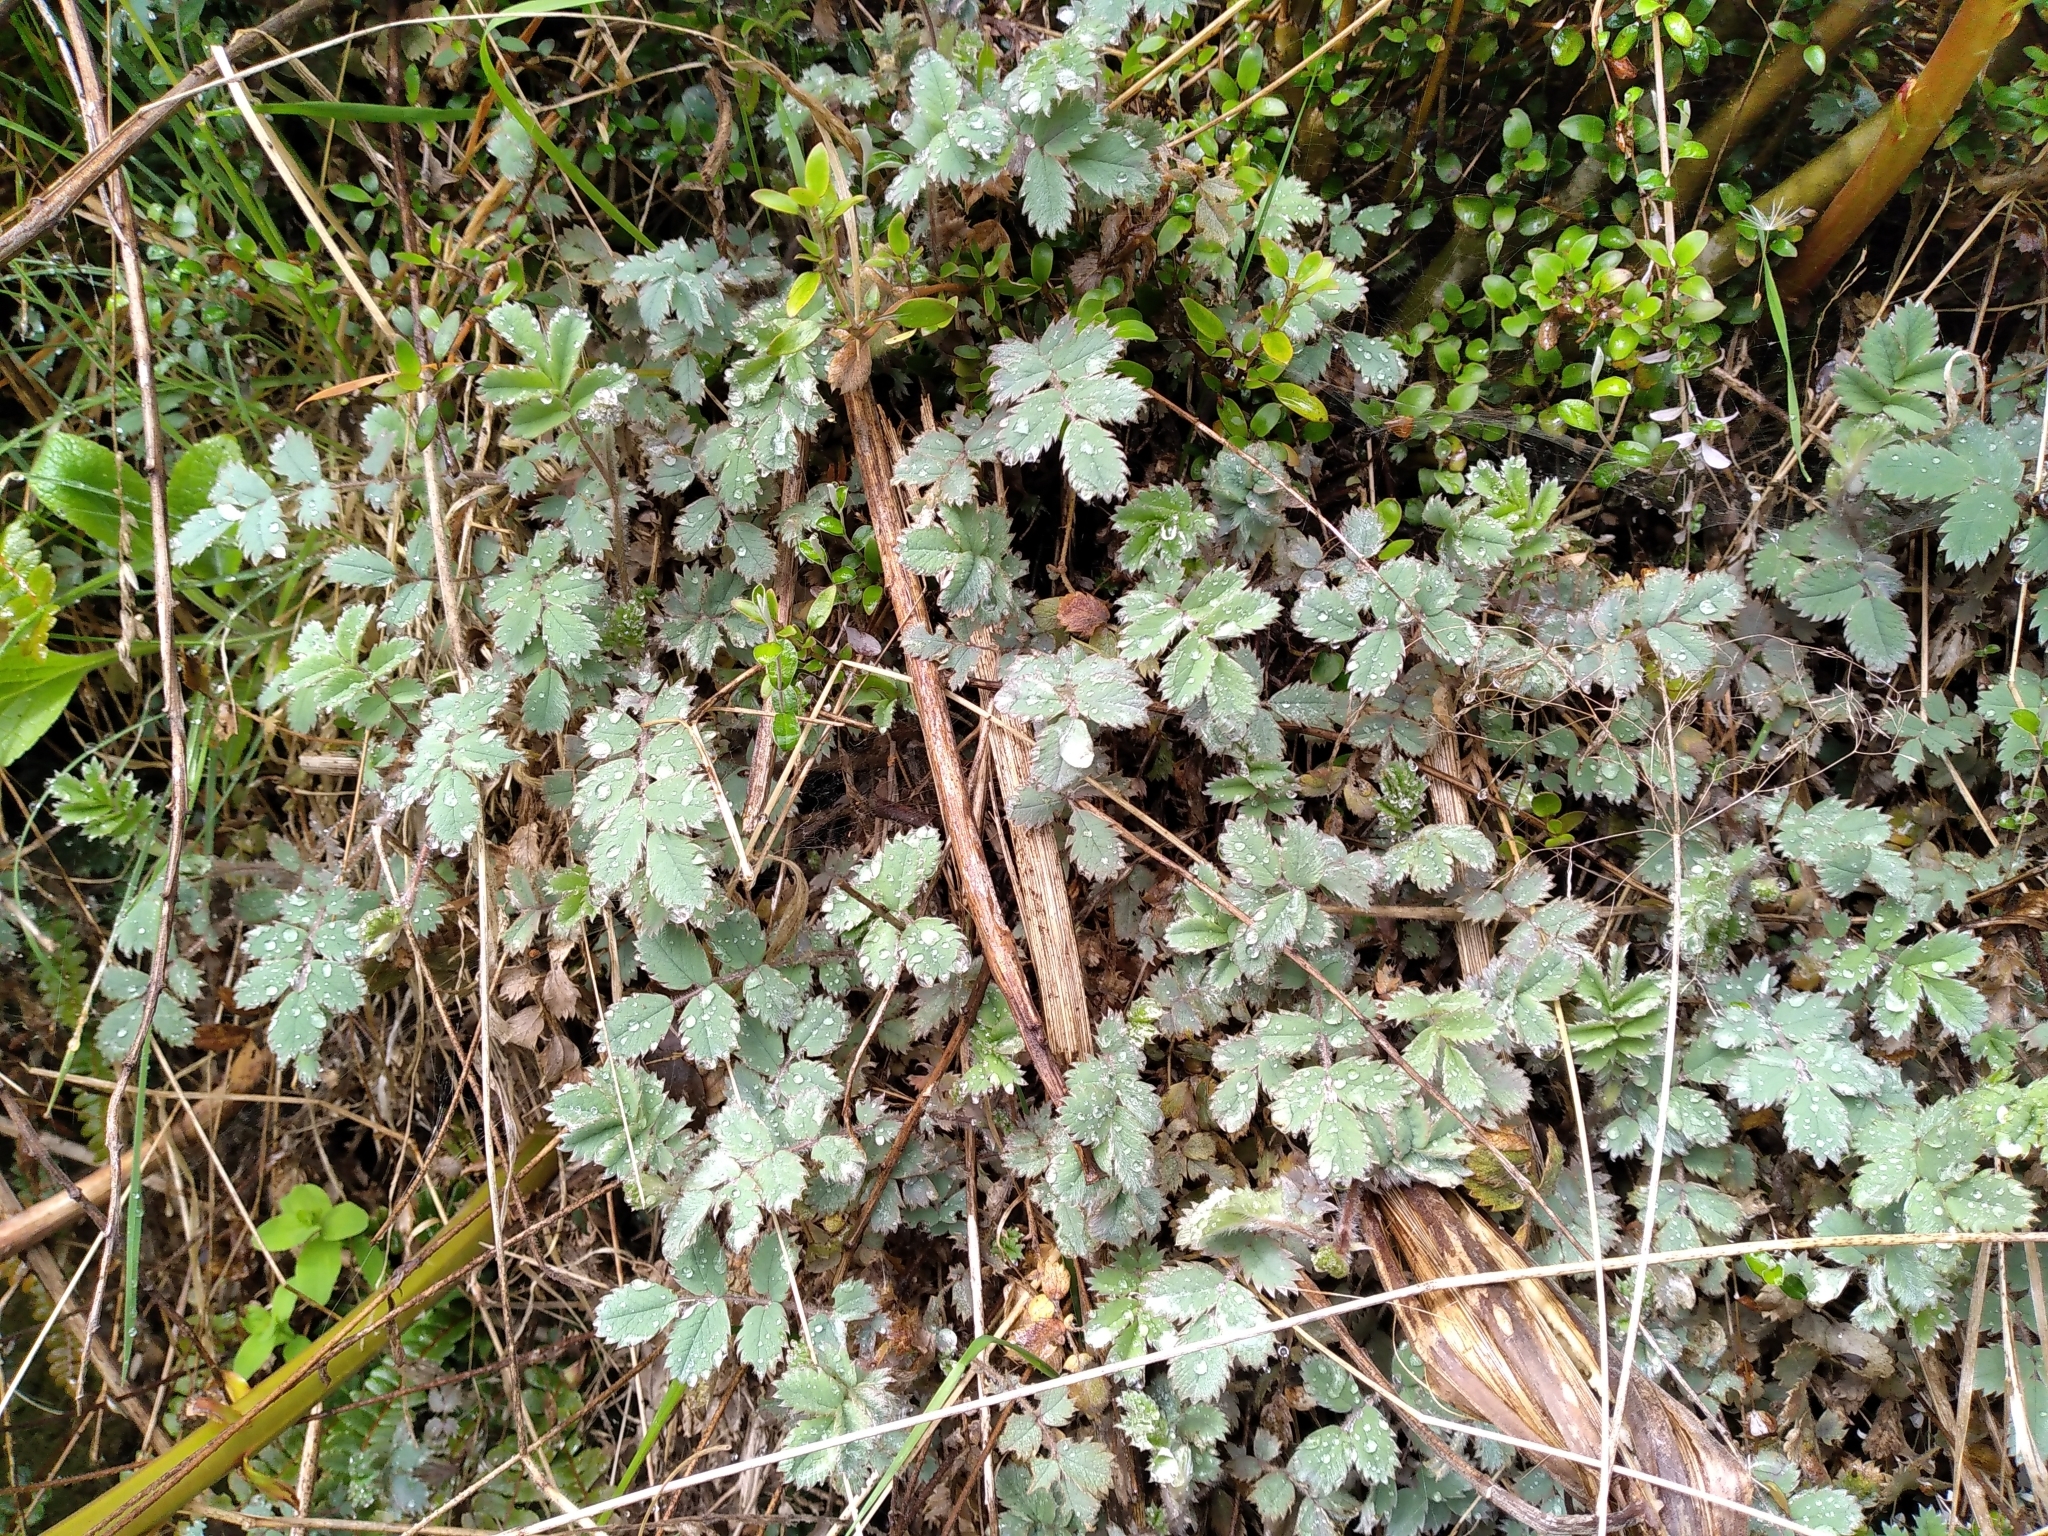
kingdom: Plantae
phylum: Tracheophyta
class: Magnoliopsida
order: Rosales
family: Rosaceae
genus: Acaena
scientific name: Acaena caesiiglauca
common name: Glaucous pirri-pirri-bur
